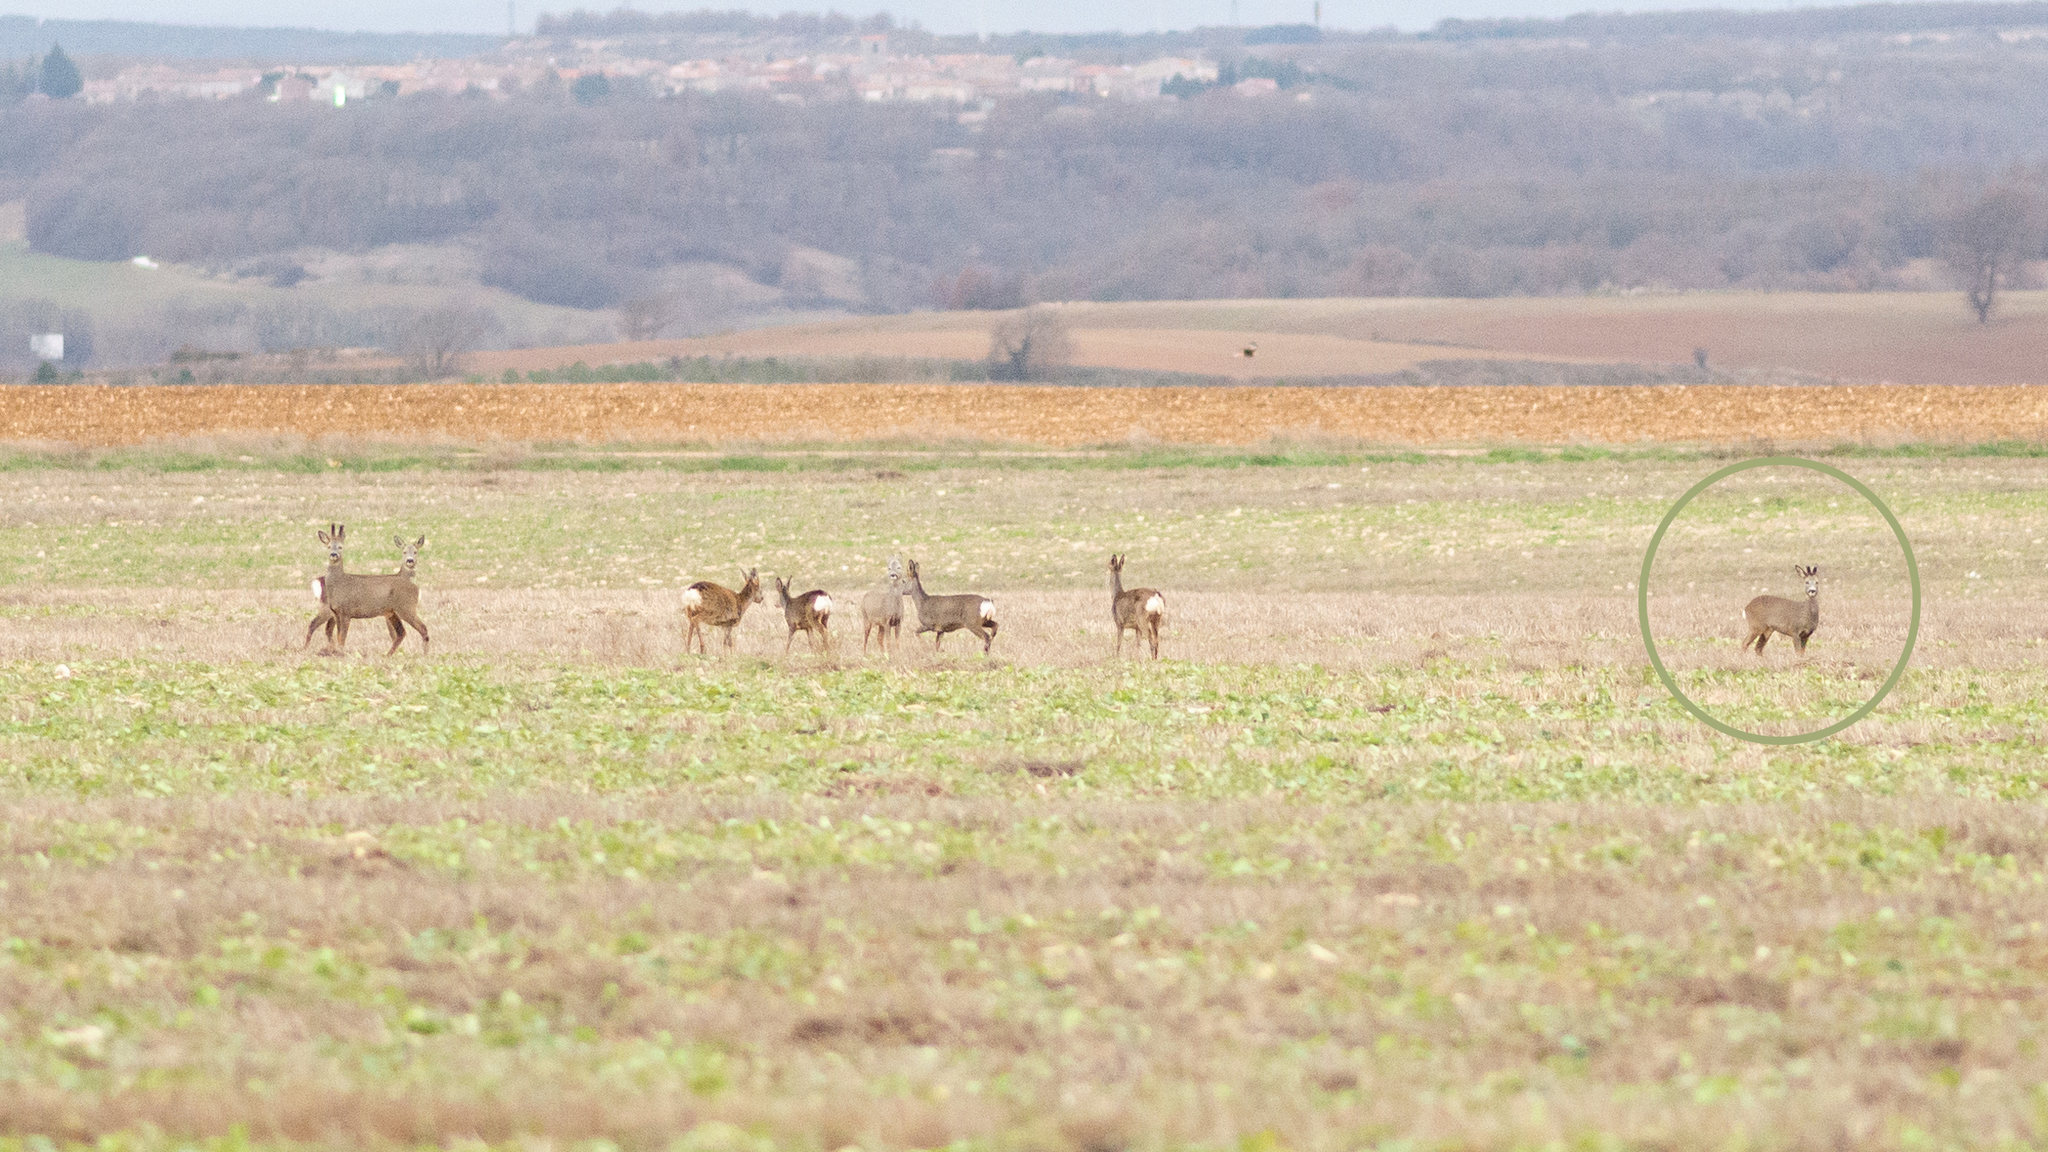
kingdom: Animalia
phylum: Chordata
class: Mammalia
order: Artiodactyla
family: Cervidae
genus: Capreolus
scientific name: Capreolus capreolus
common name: Western roe deer
